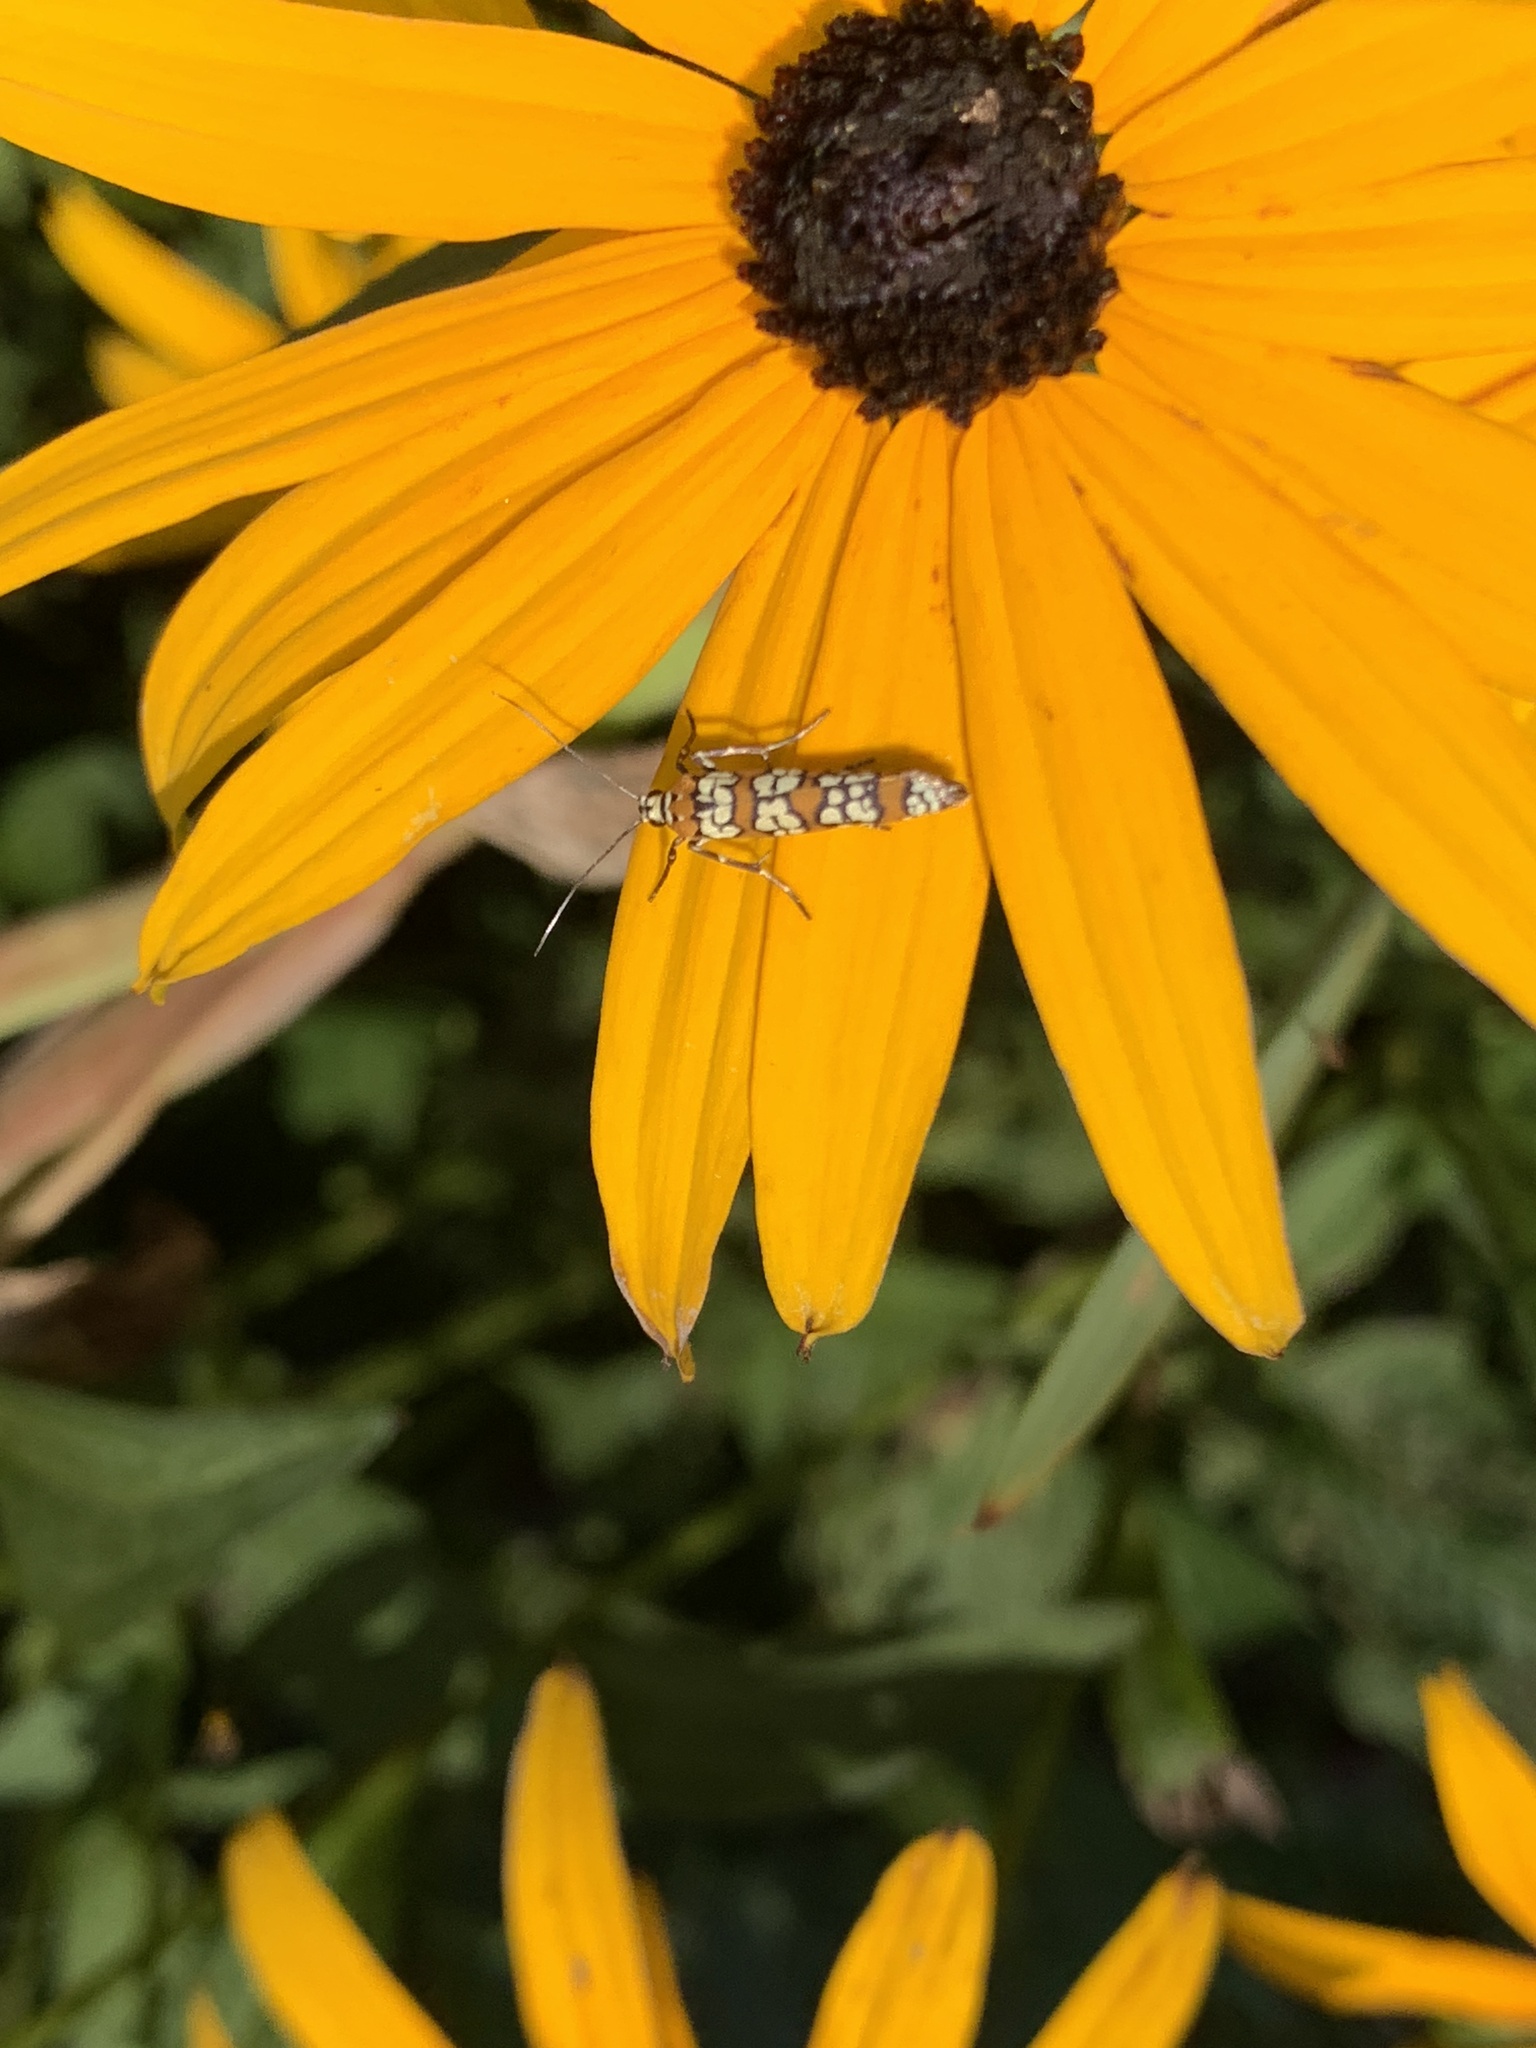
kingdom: Animalia
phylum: Arthropoda
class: Insecta
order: Lepidoptera
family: Attevidae
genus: Atteva
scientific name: Atteva punctella
